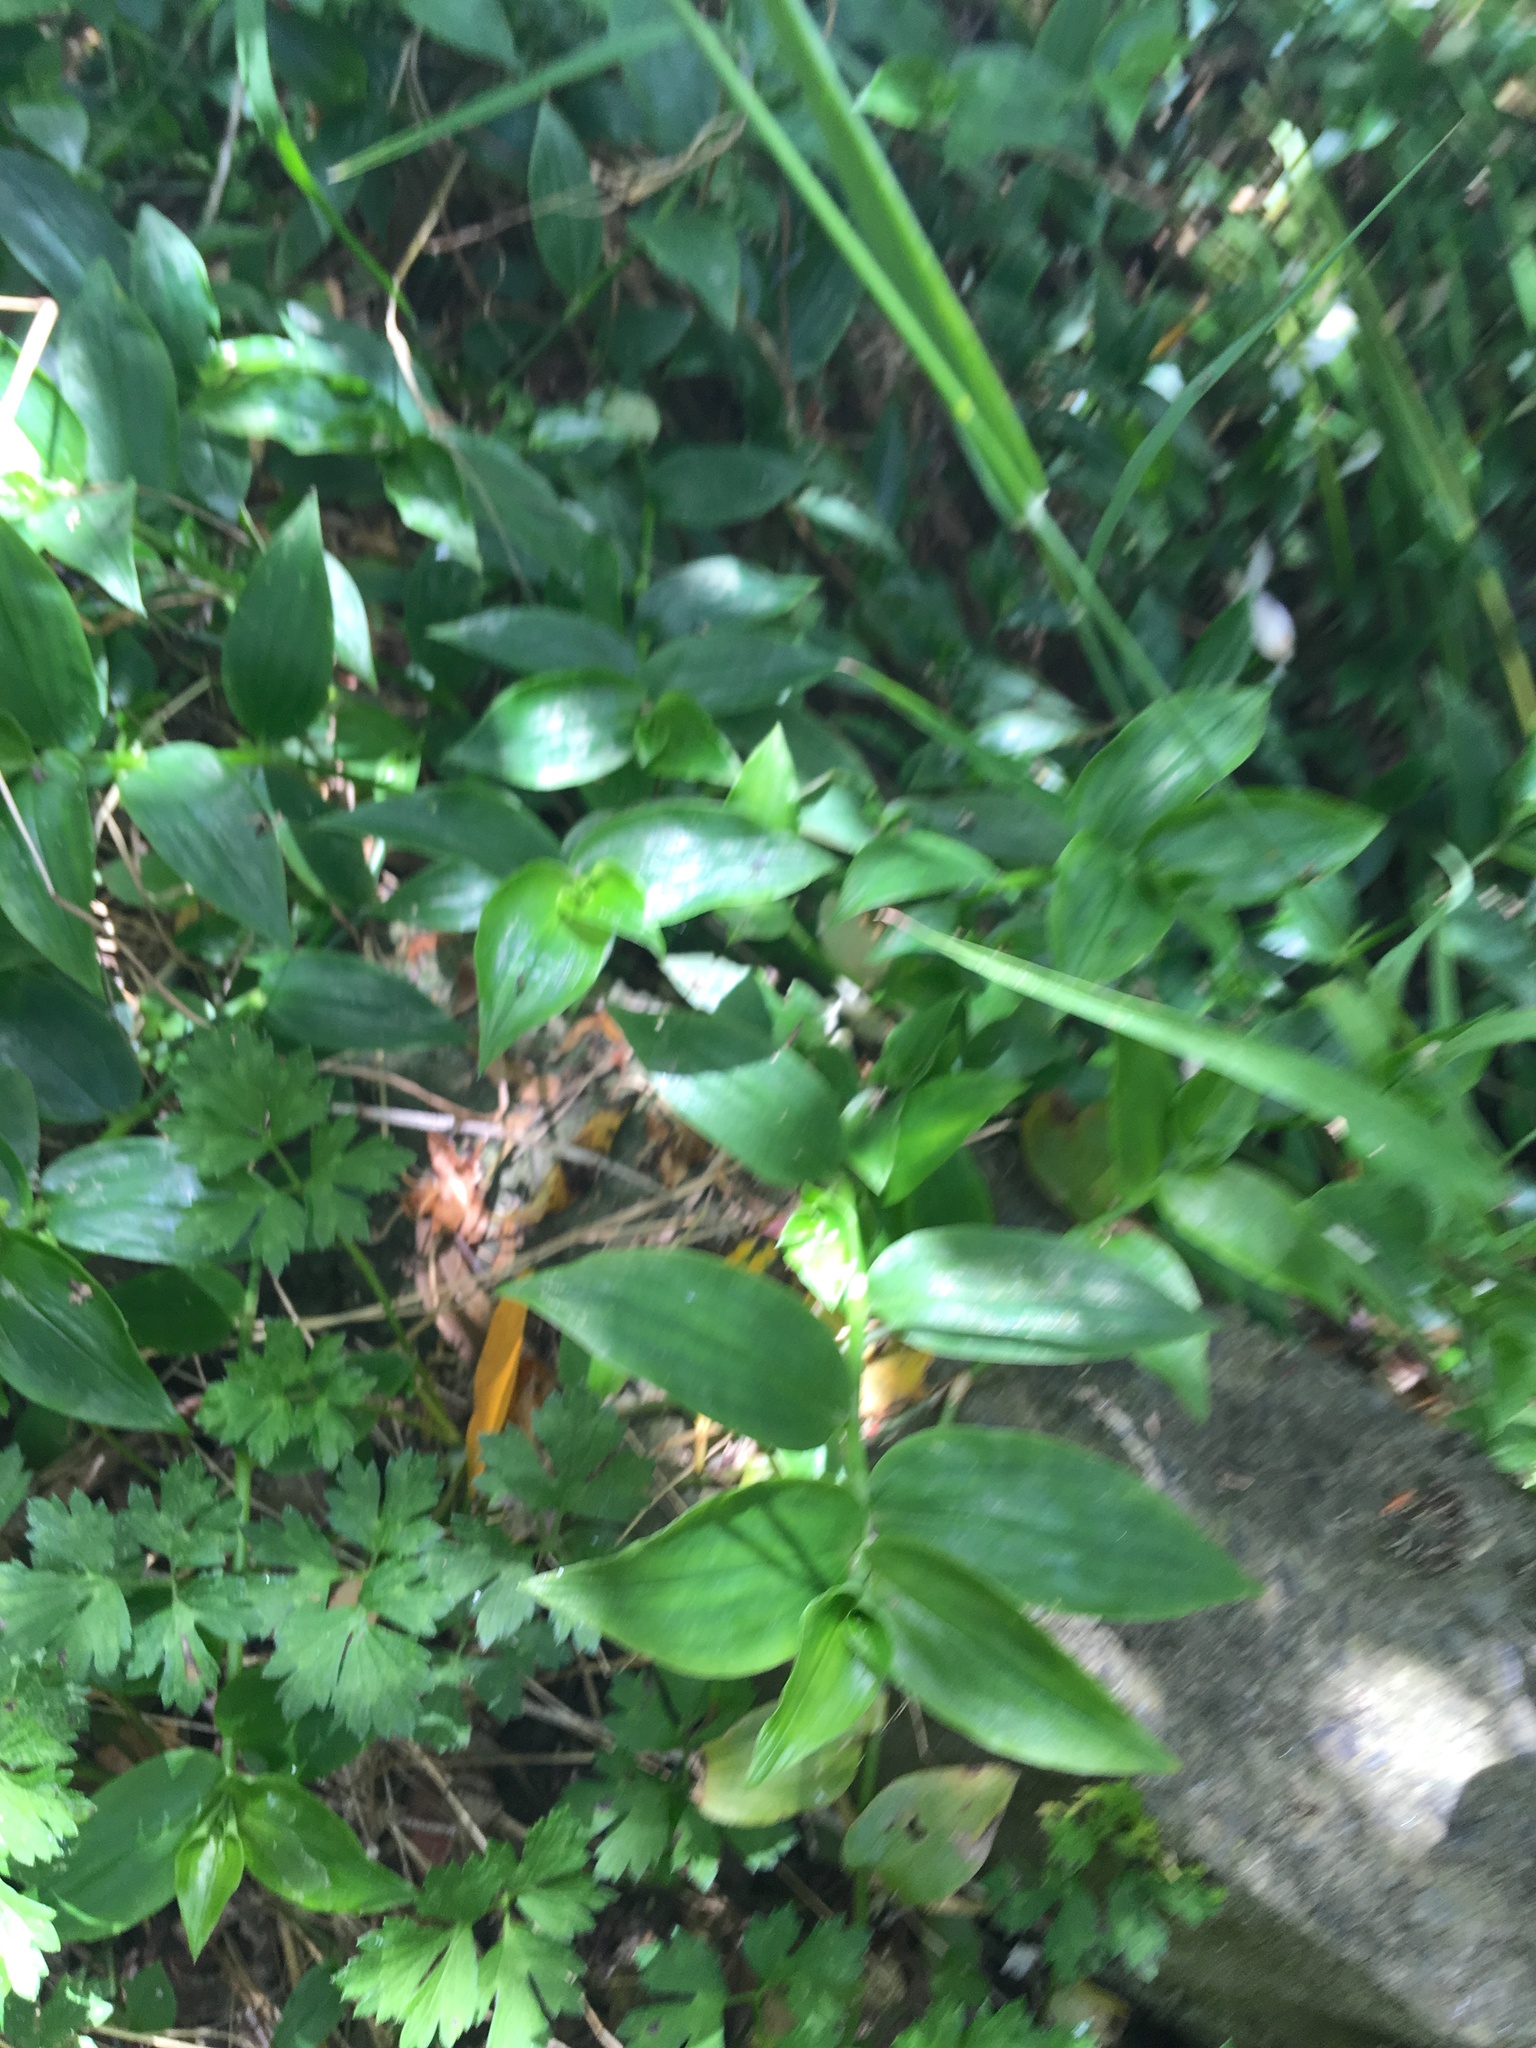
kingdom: Plantae
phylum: Tracheophyta
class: Liliopsida
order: Commelinales
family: Commelinaceae
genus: Tradescantia
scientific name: Tradescantia fluminensis
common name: Wandering-jew
